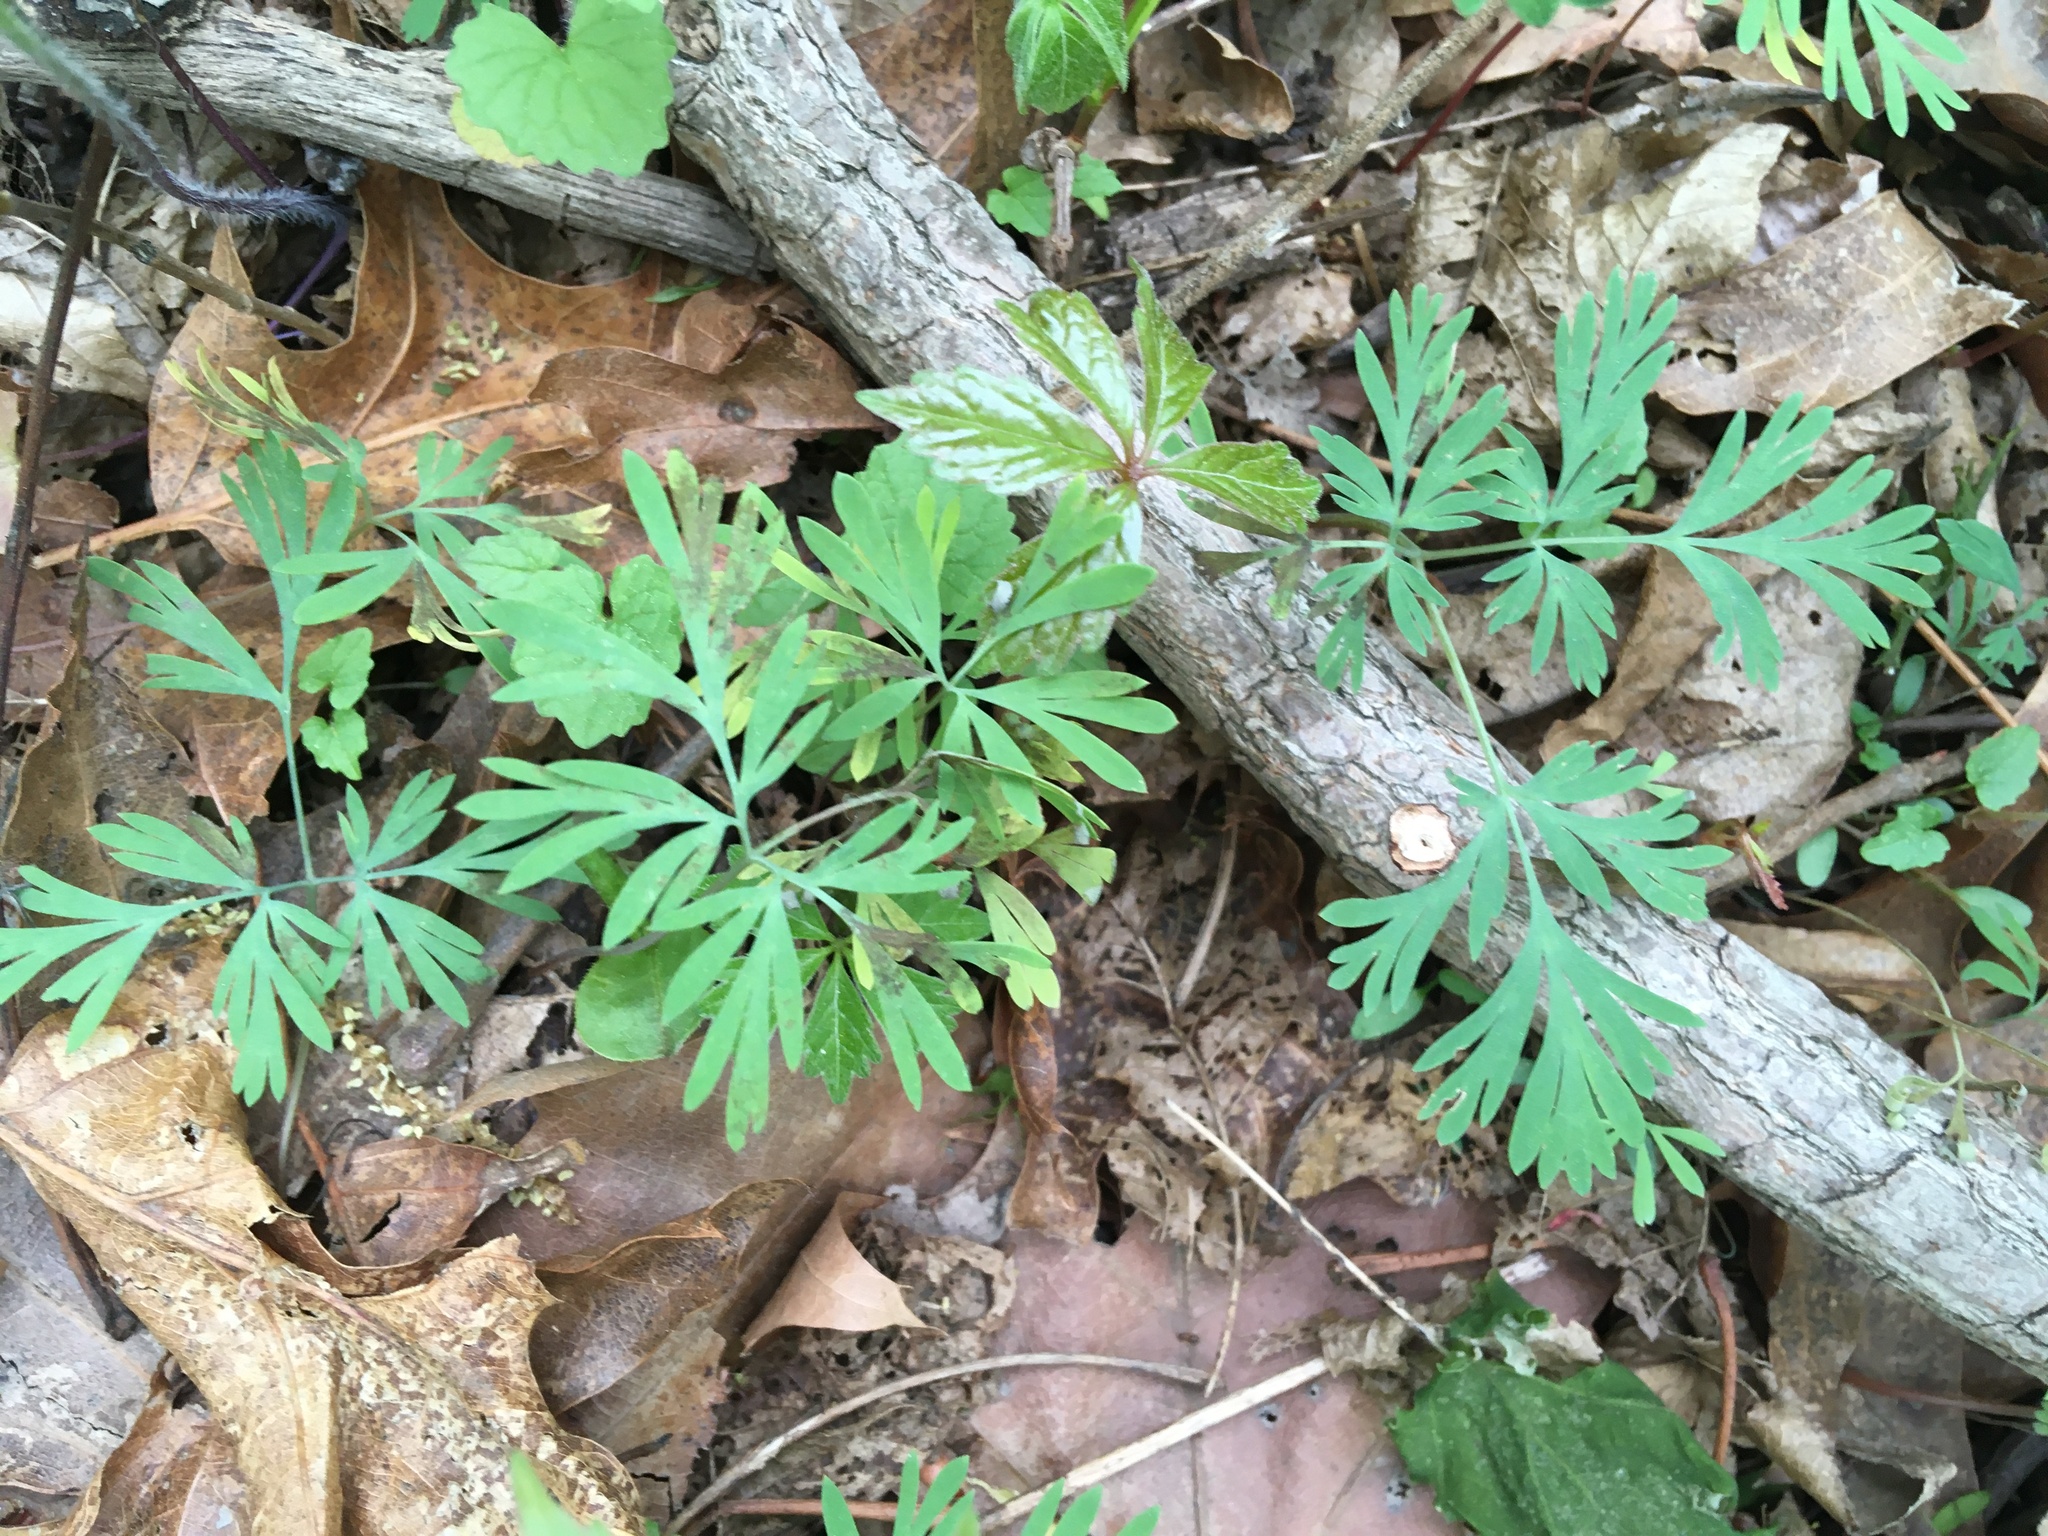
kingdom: Plantae
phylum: Tracheophyta
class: Magnoliopsida
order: Ranunculales
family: Papaveraceae
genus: Dicentra
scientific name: Dicentra cucullaria
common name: Dutchman's breeches
